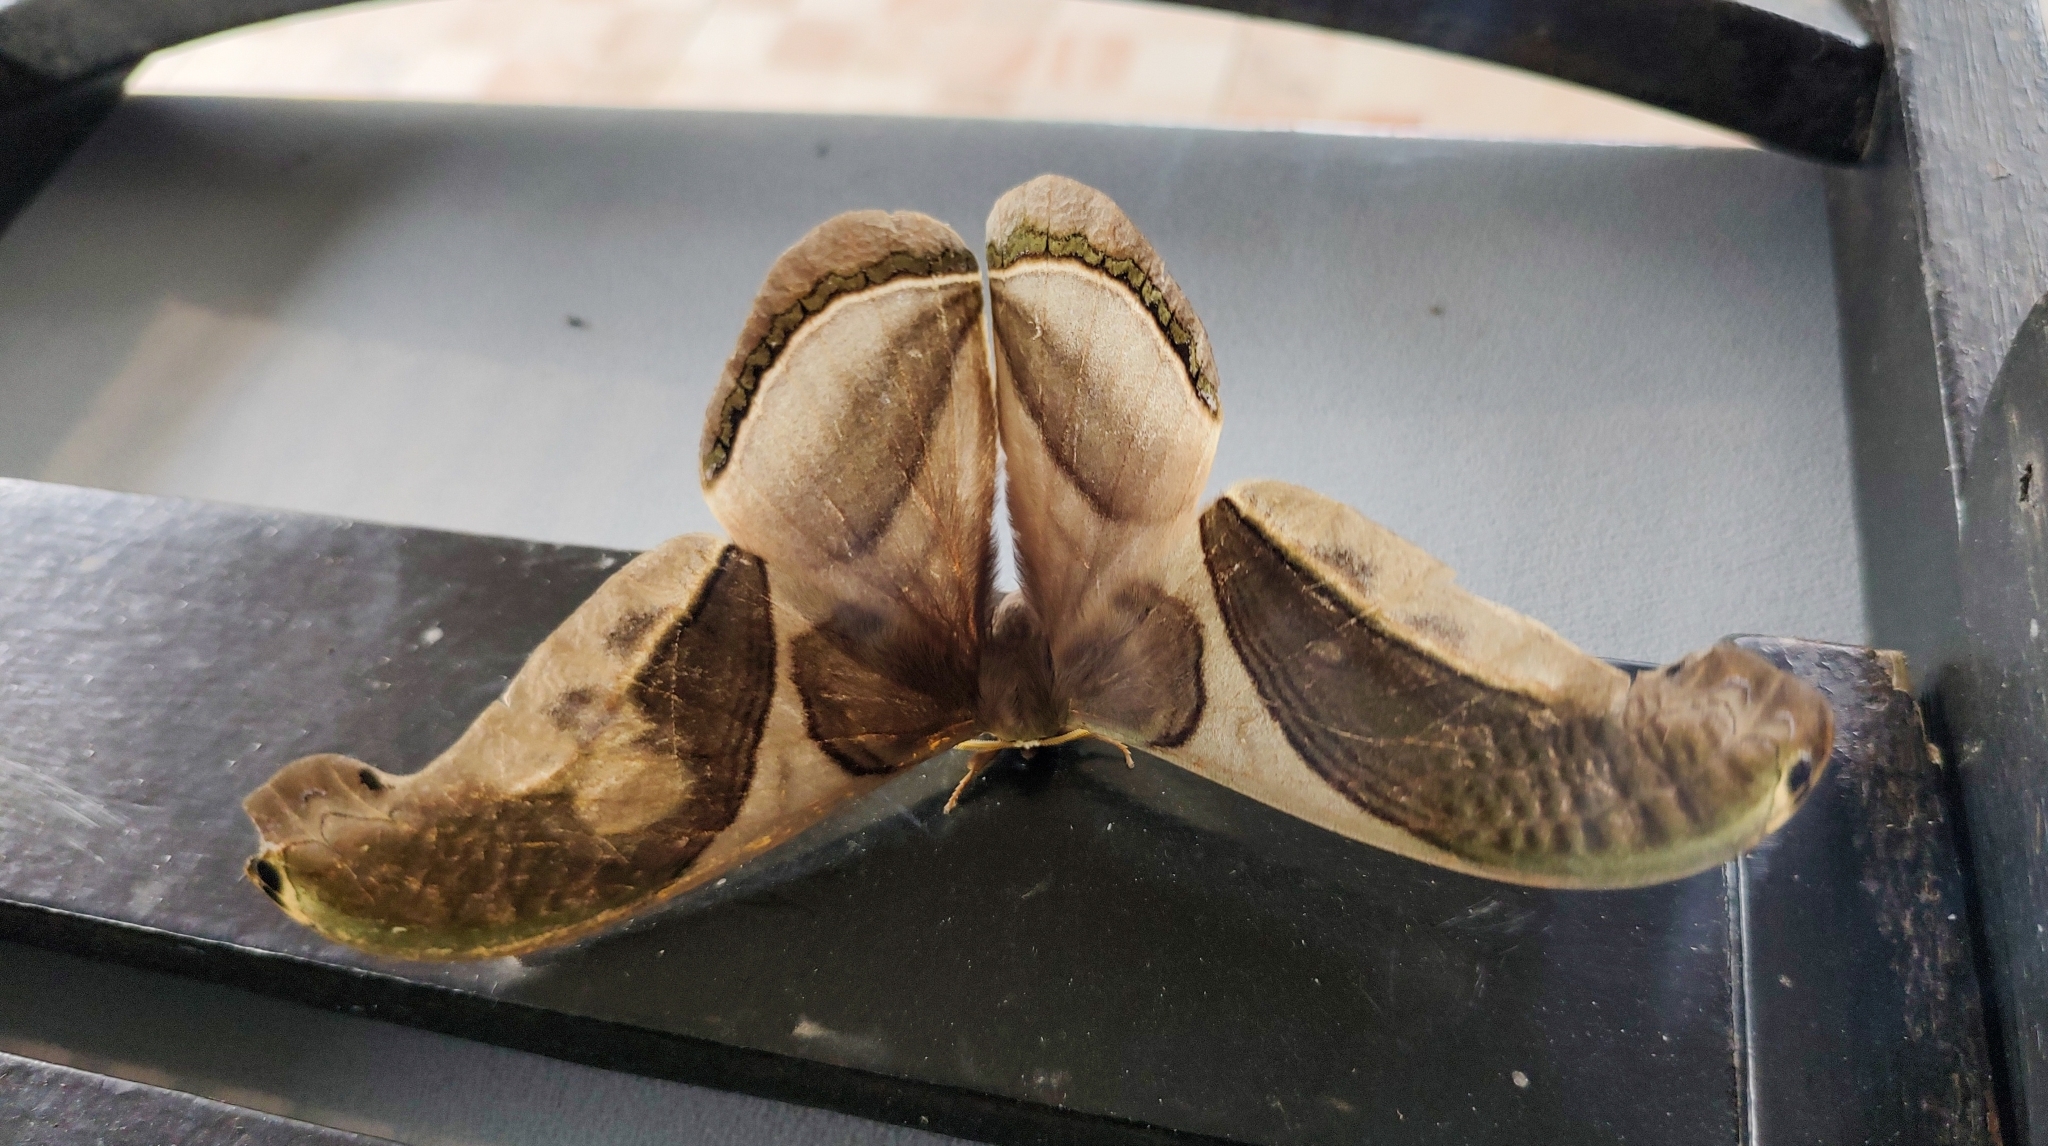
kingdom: Animalia
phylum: Arthropoda
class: Insecta
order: Lepidoptera
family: Saturniidae
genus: Rhescyntis
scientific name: Rhescyntis pseudomartii
